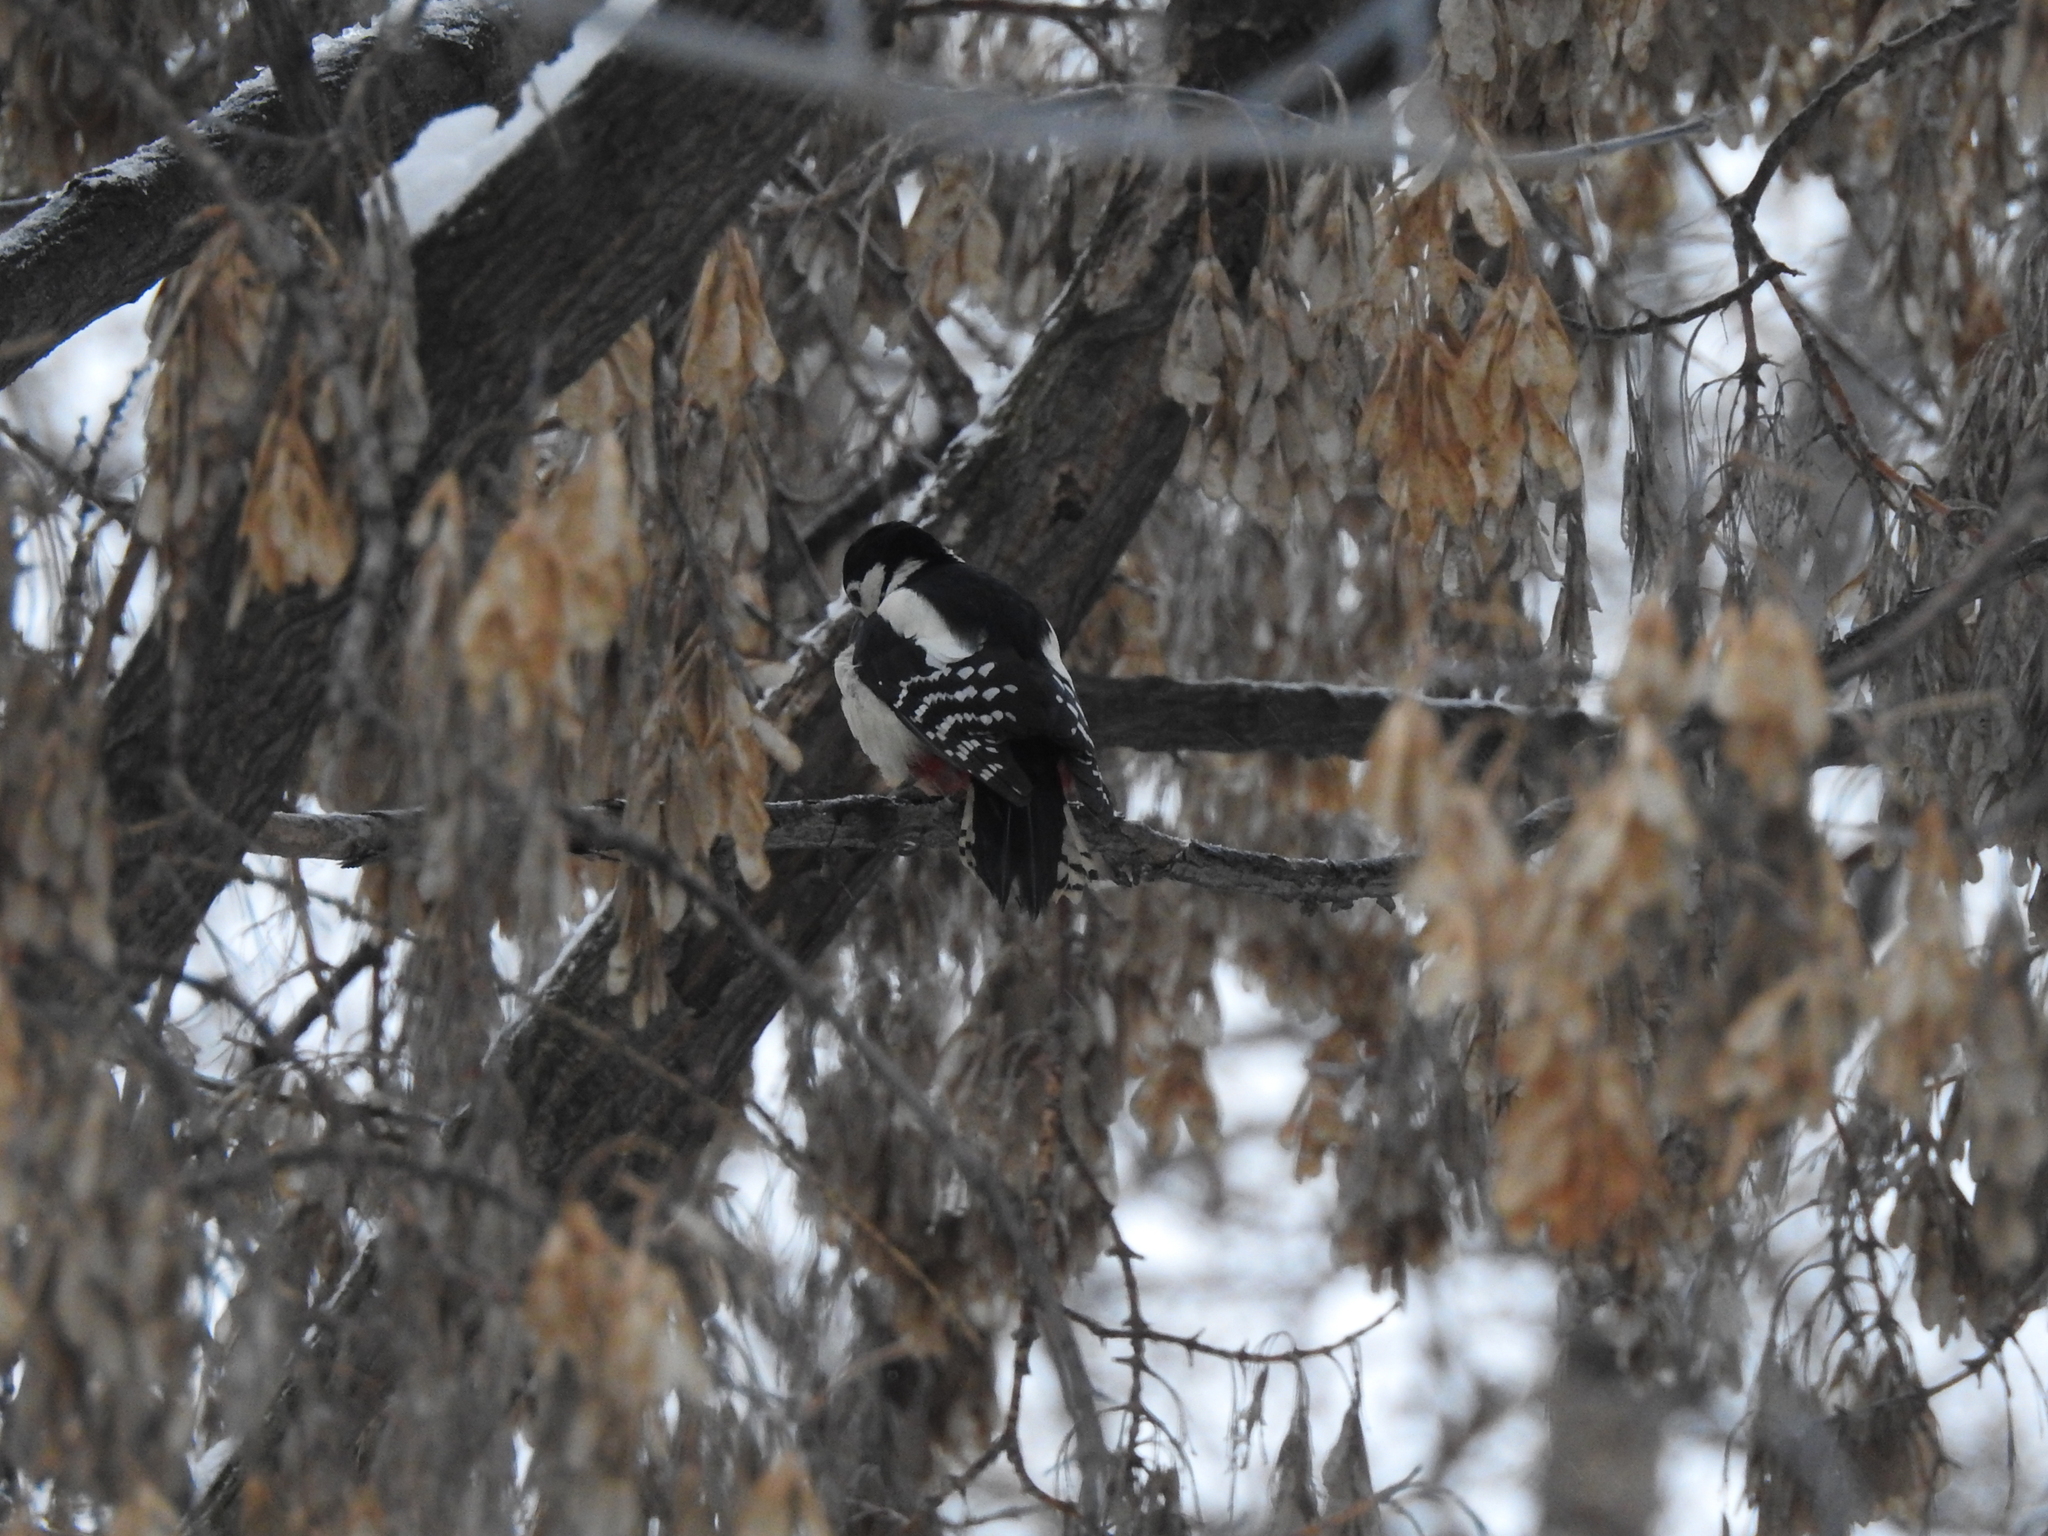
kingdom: Animalia
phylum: Chordata
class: Aves
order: Piciformes
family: Picidae
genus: Dendrocopos
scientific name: Dendrocopos major
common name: Great spotted woodpecker
